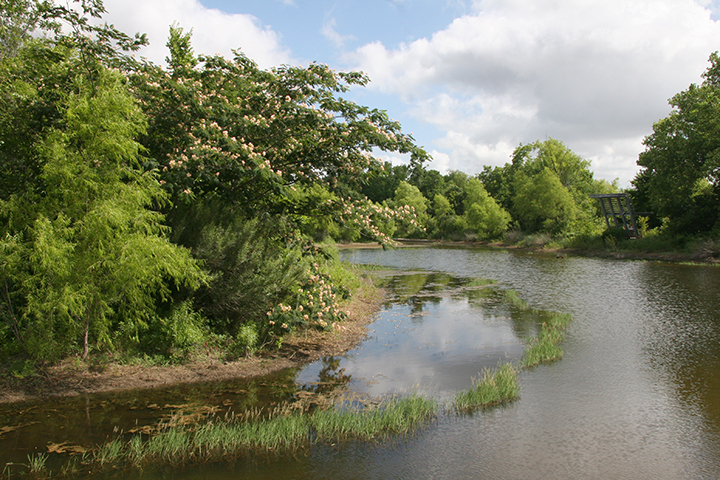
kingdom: Plantae
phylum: Tracheophyta
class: Magnoliopsida
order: Fabales
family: Fabaceae
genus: Albizia
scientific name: Albizia julibrissin
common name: Silktree
